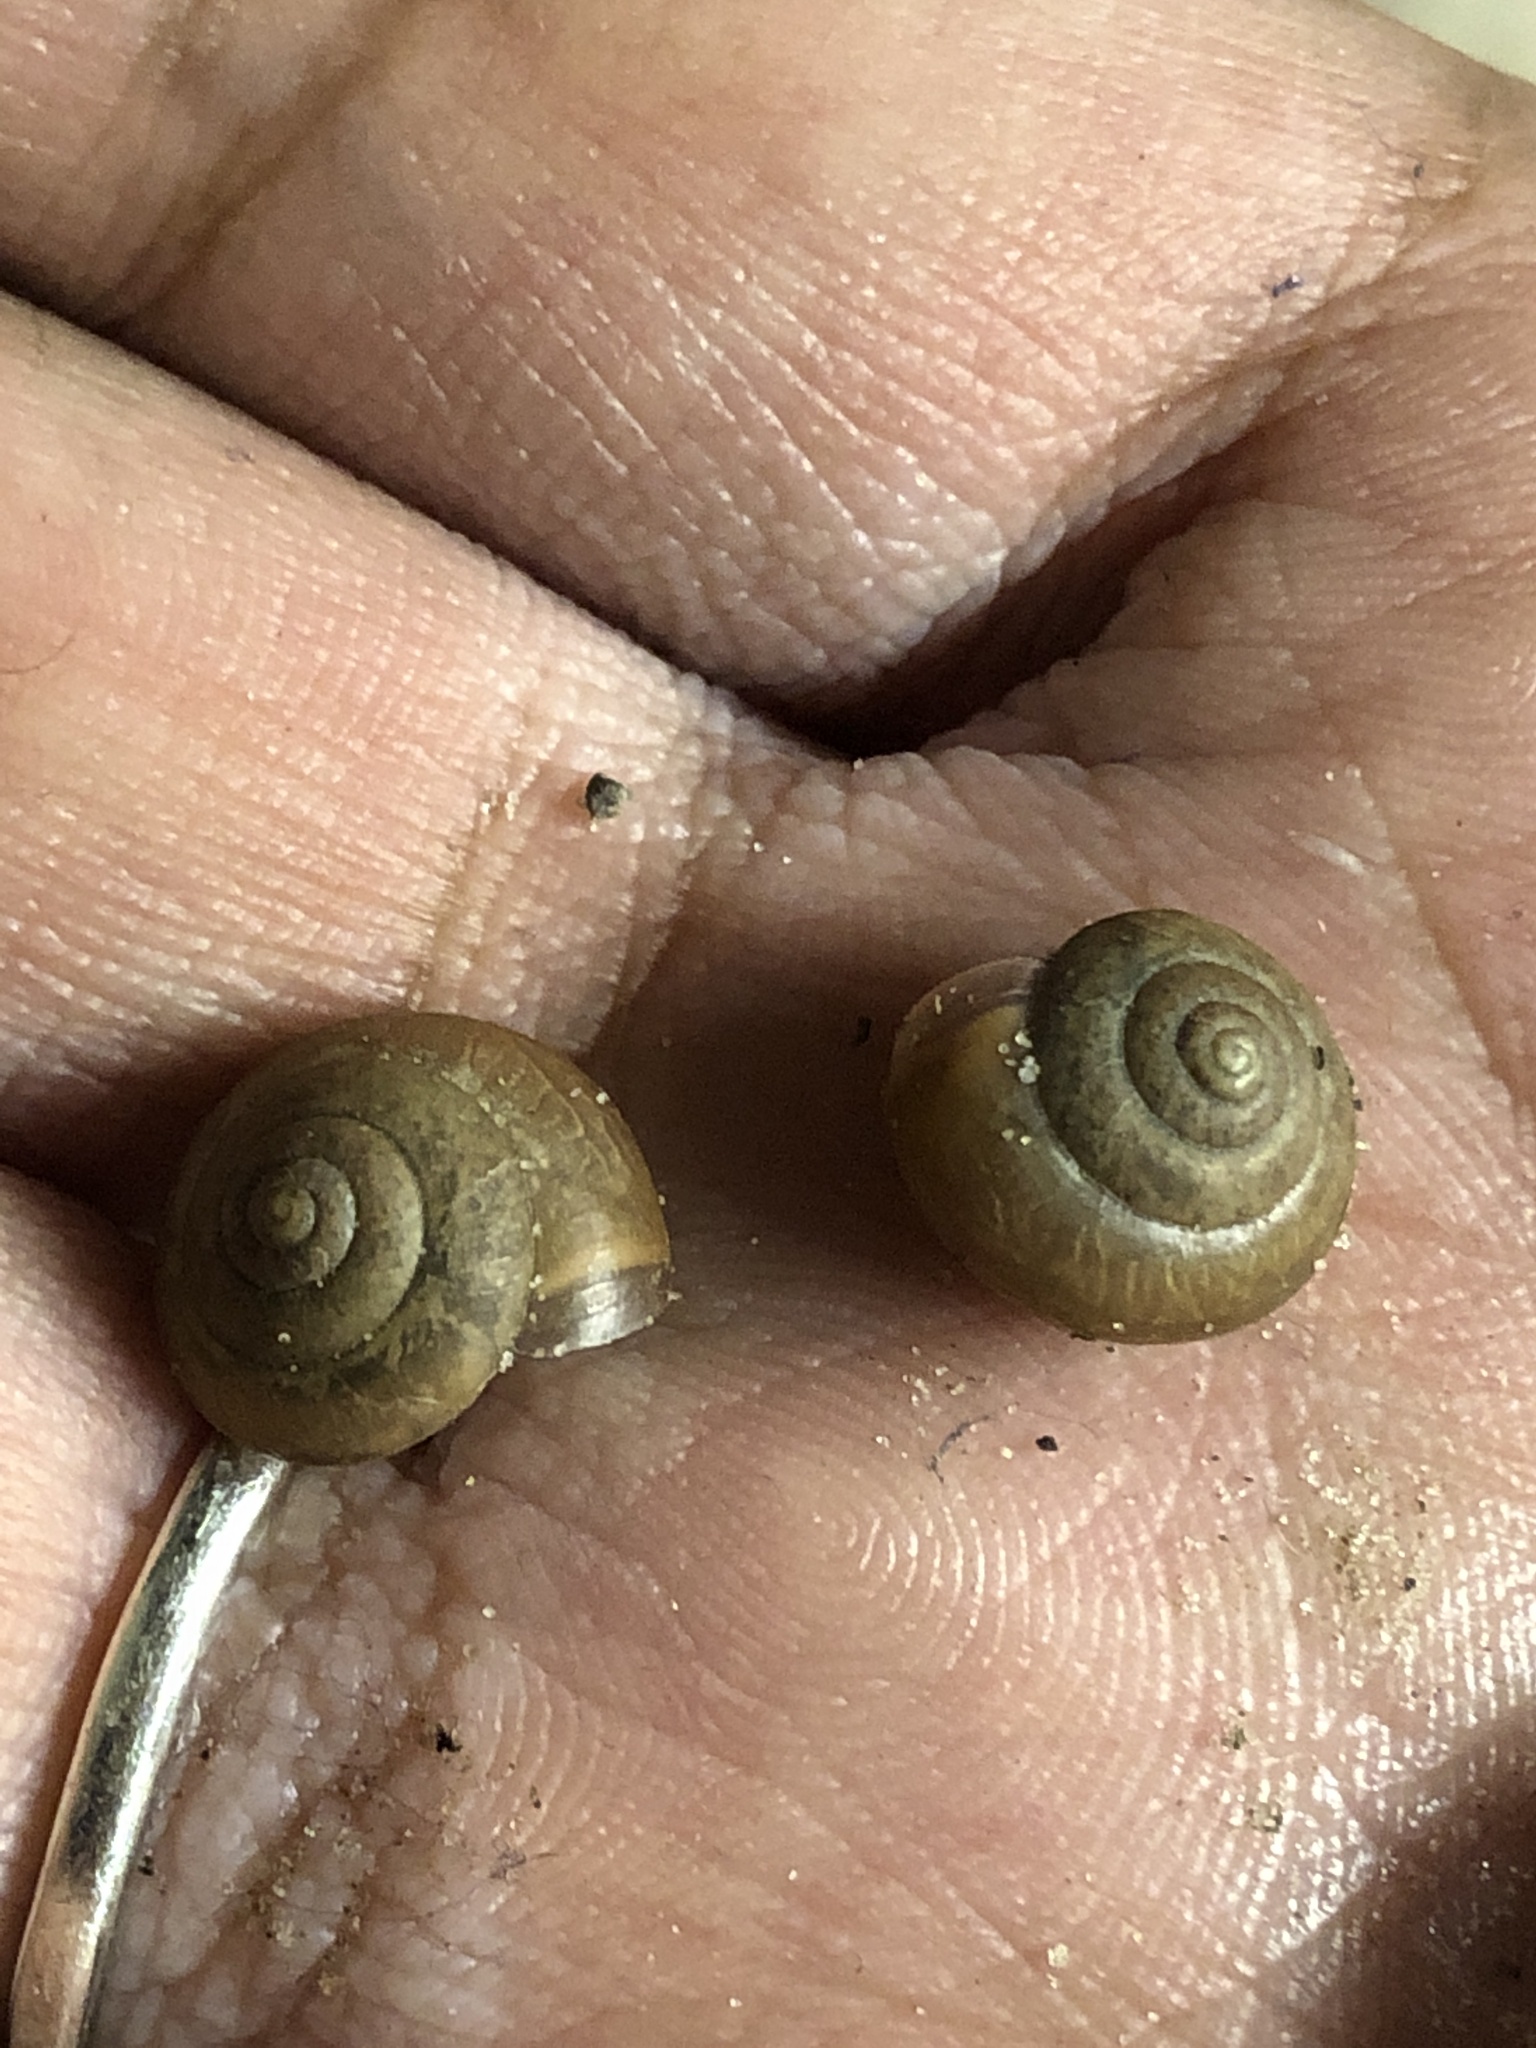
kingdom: Animalia
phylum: Mollusca
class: Gastropoda
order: Stylommatophora
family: Camaenidae
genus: Bradybaena
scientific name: Bradybaena similaris
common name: Asian trampsnail
